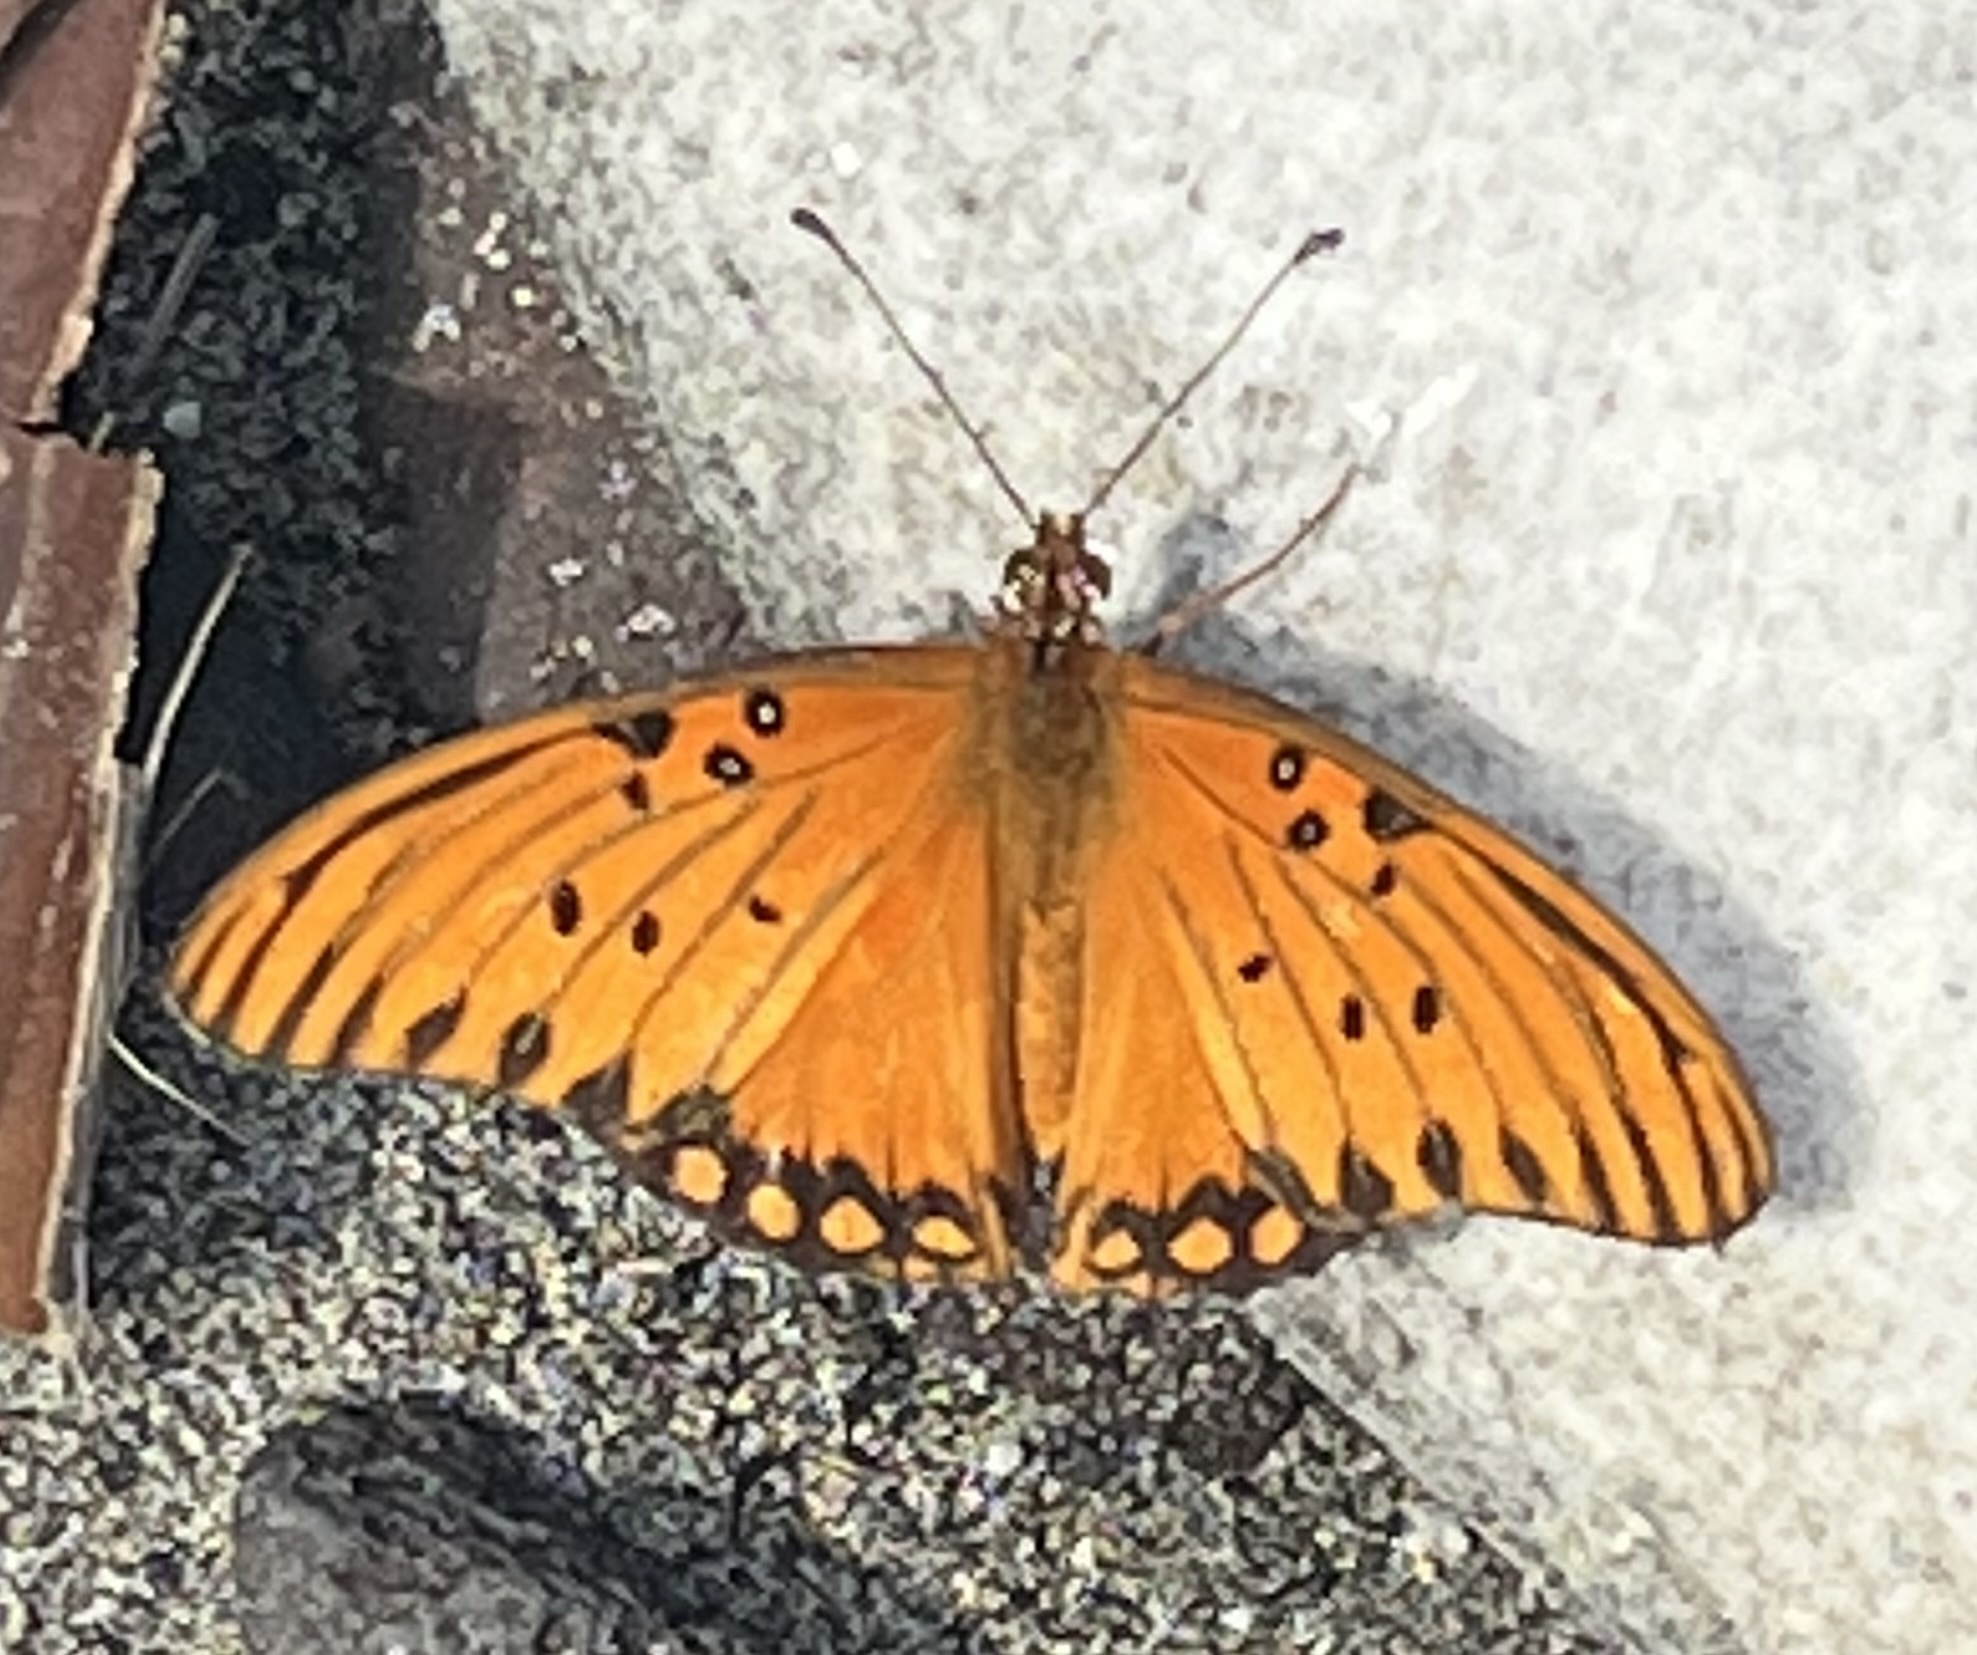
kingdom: Animalia
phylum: Arthropoda
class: Insecta
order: Lepidoptera
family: Nymphalidae
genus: Dione
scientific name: Dione vanillae
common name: Gulf fritillary
